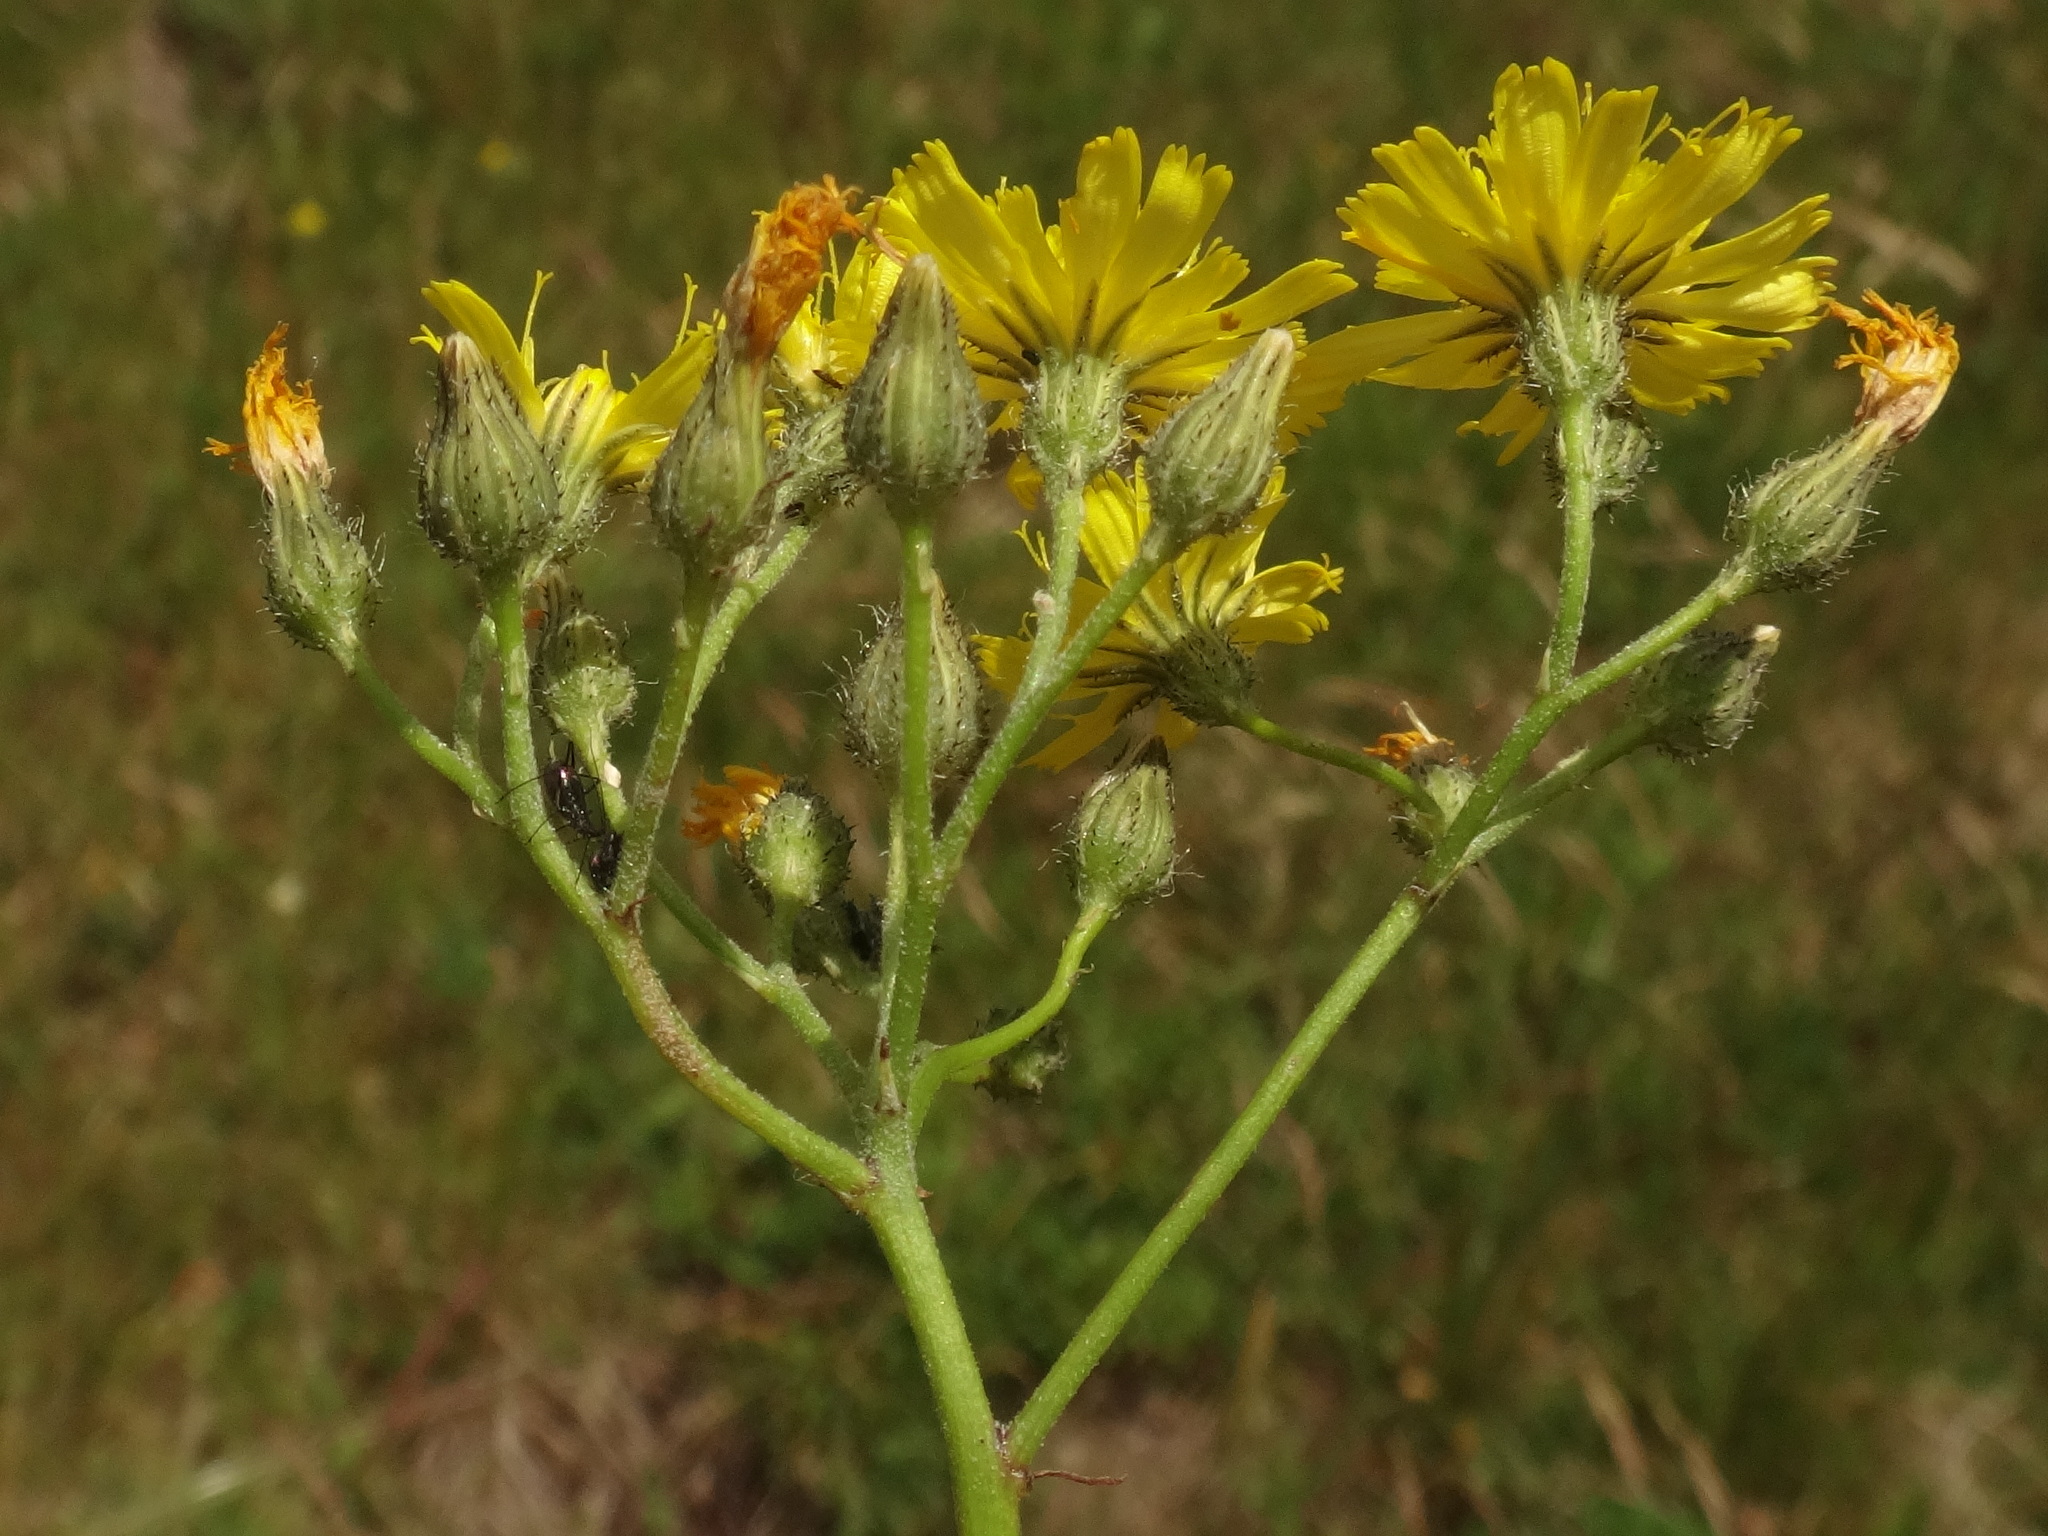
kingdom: Plantae
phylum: Tracheophyta
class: Magnoliopsida
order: Asterales
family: Asteraceae
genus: Pilosella
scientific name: Pilosella bauhini
